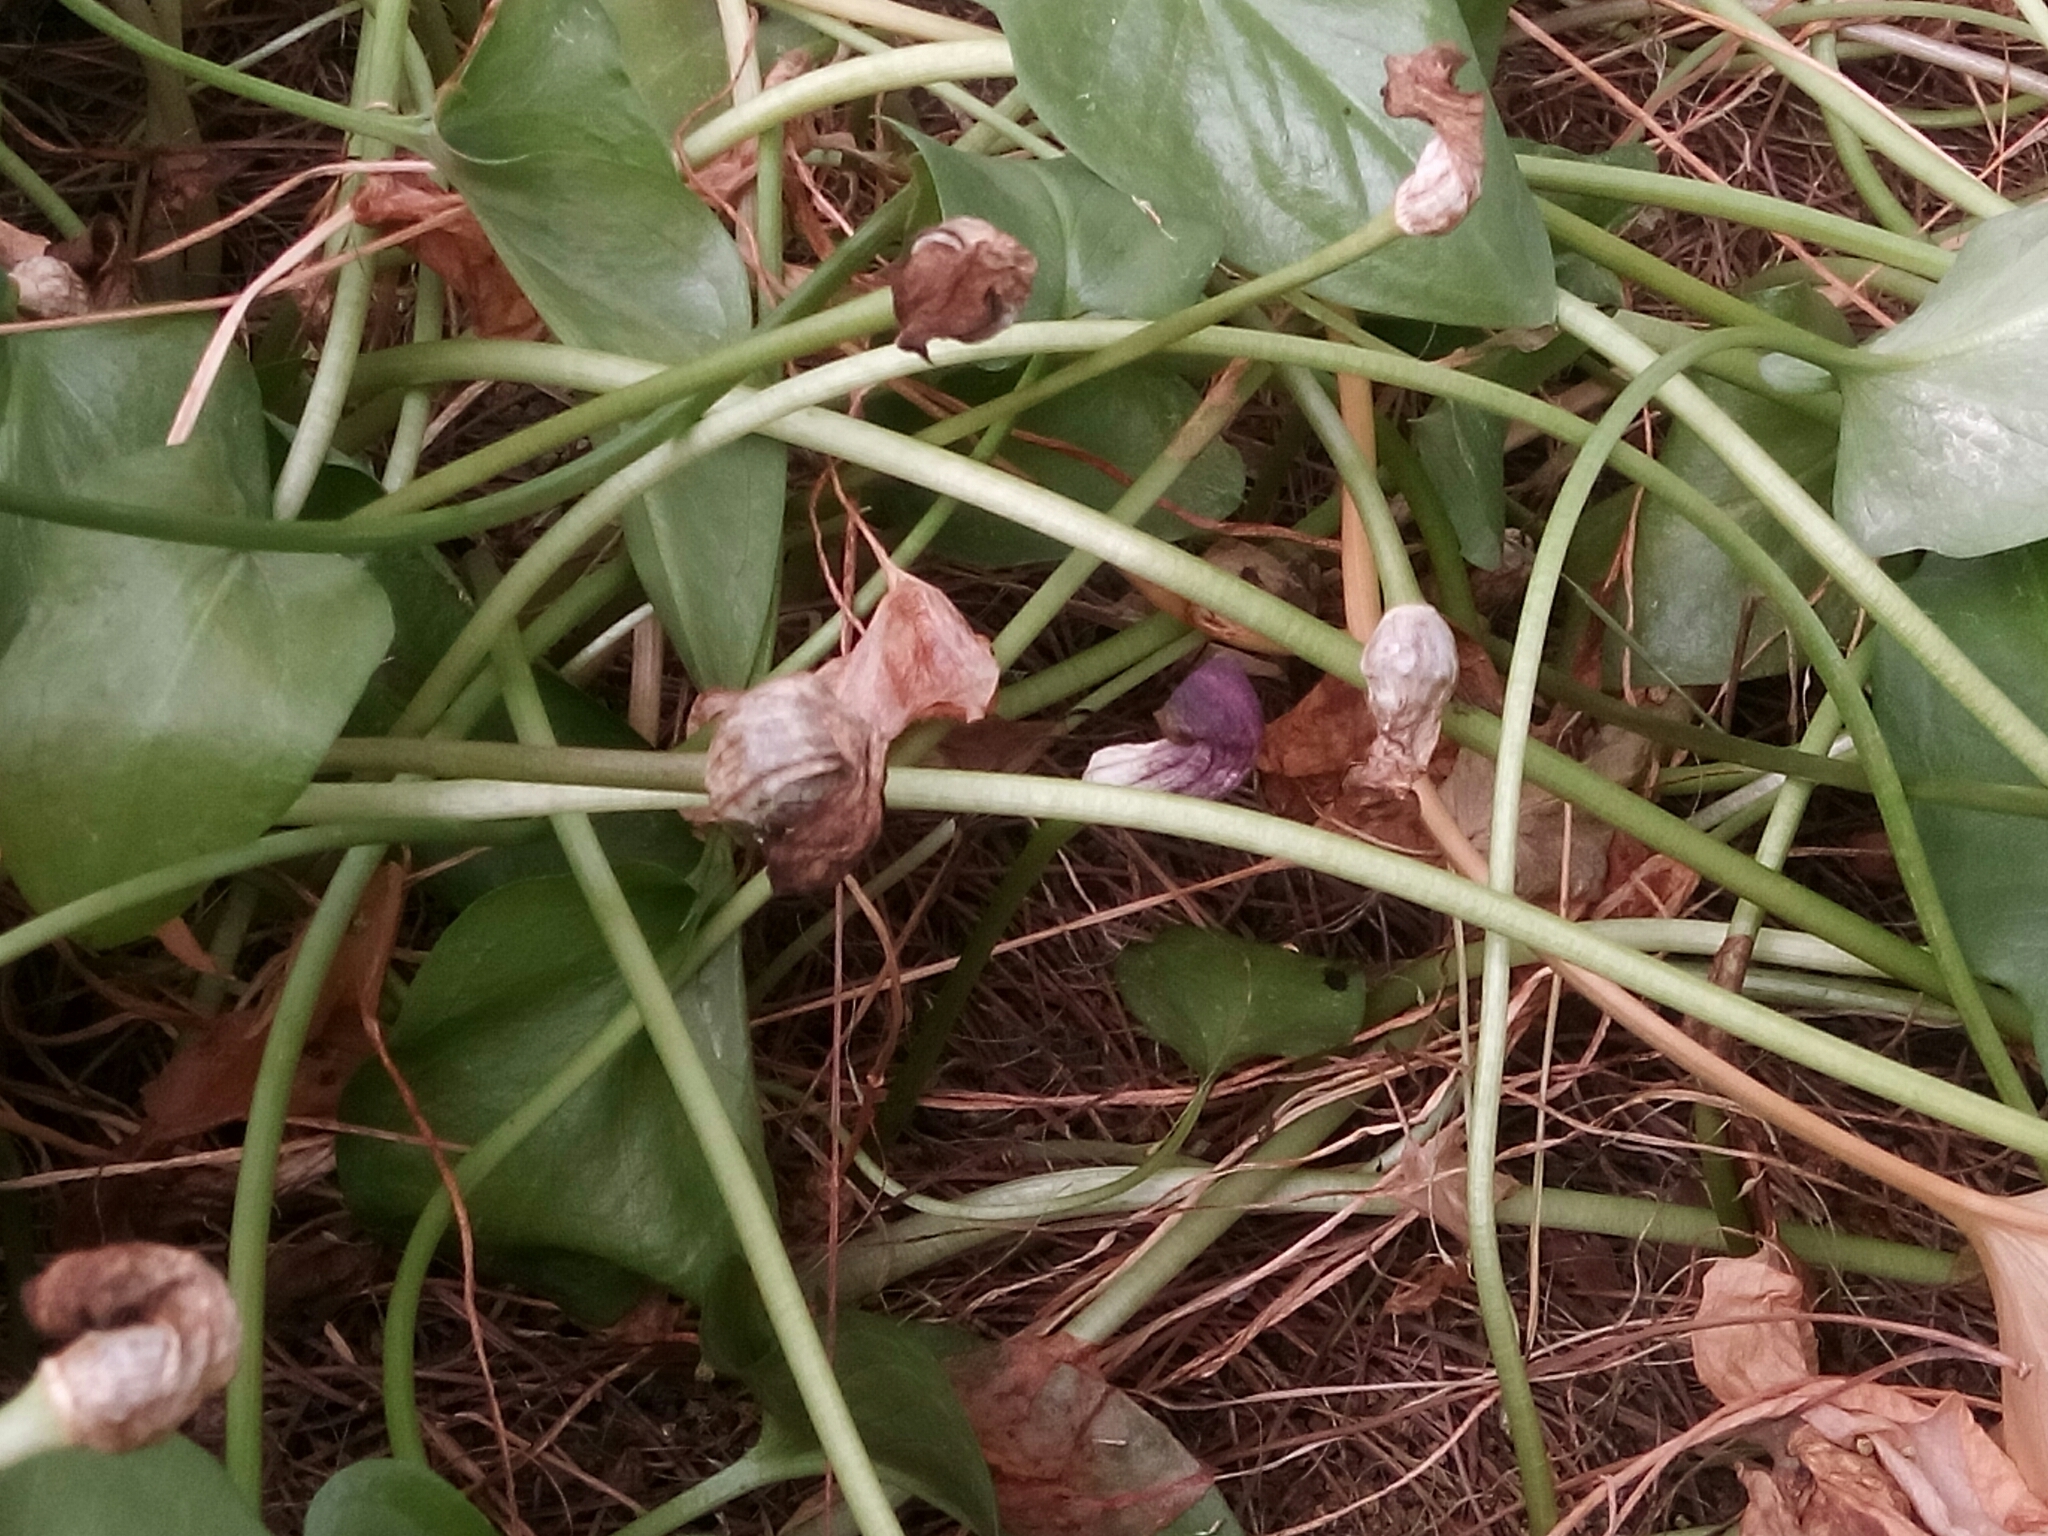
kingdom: Plantae
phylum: Tracheophyta
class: Liliopsida
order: Alismatales
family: Araceae
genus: Arisarum
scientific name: Arisarum simorrhinum
